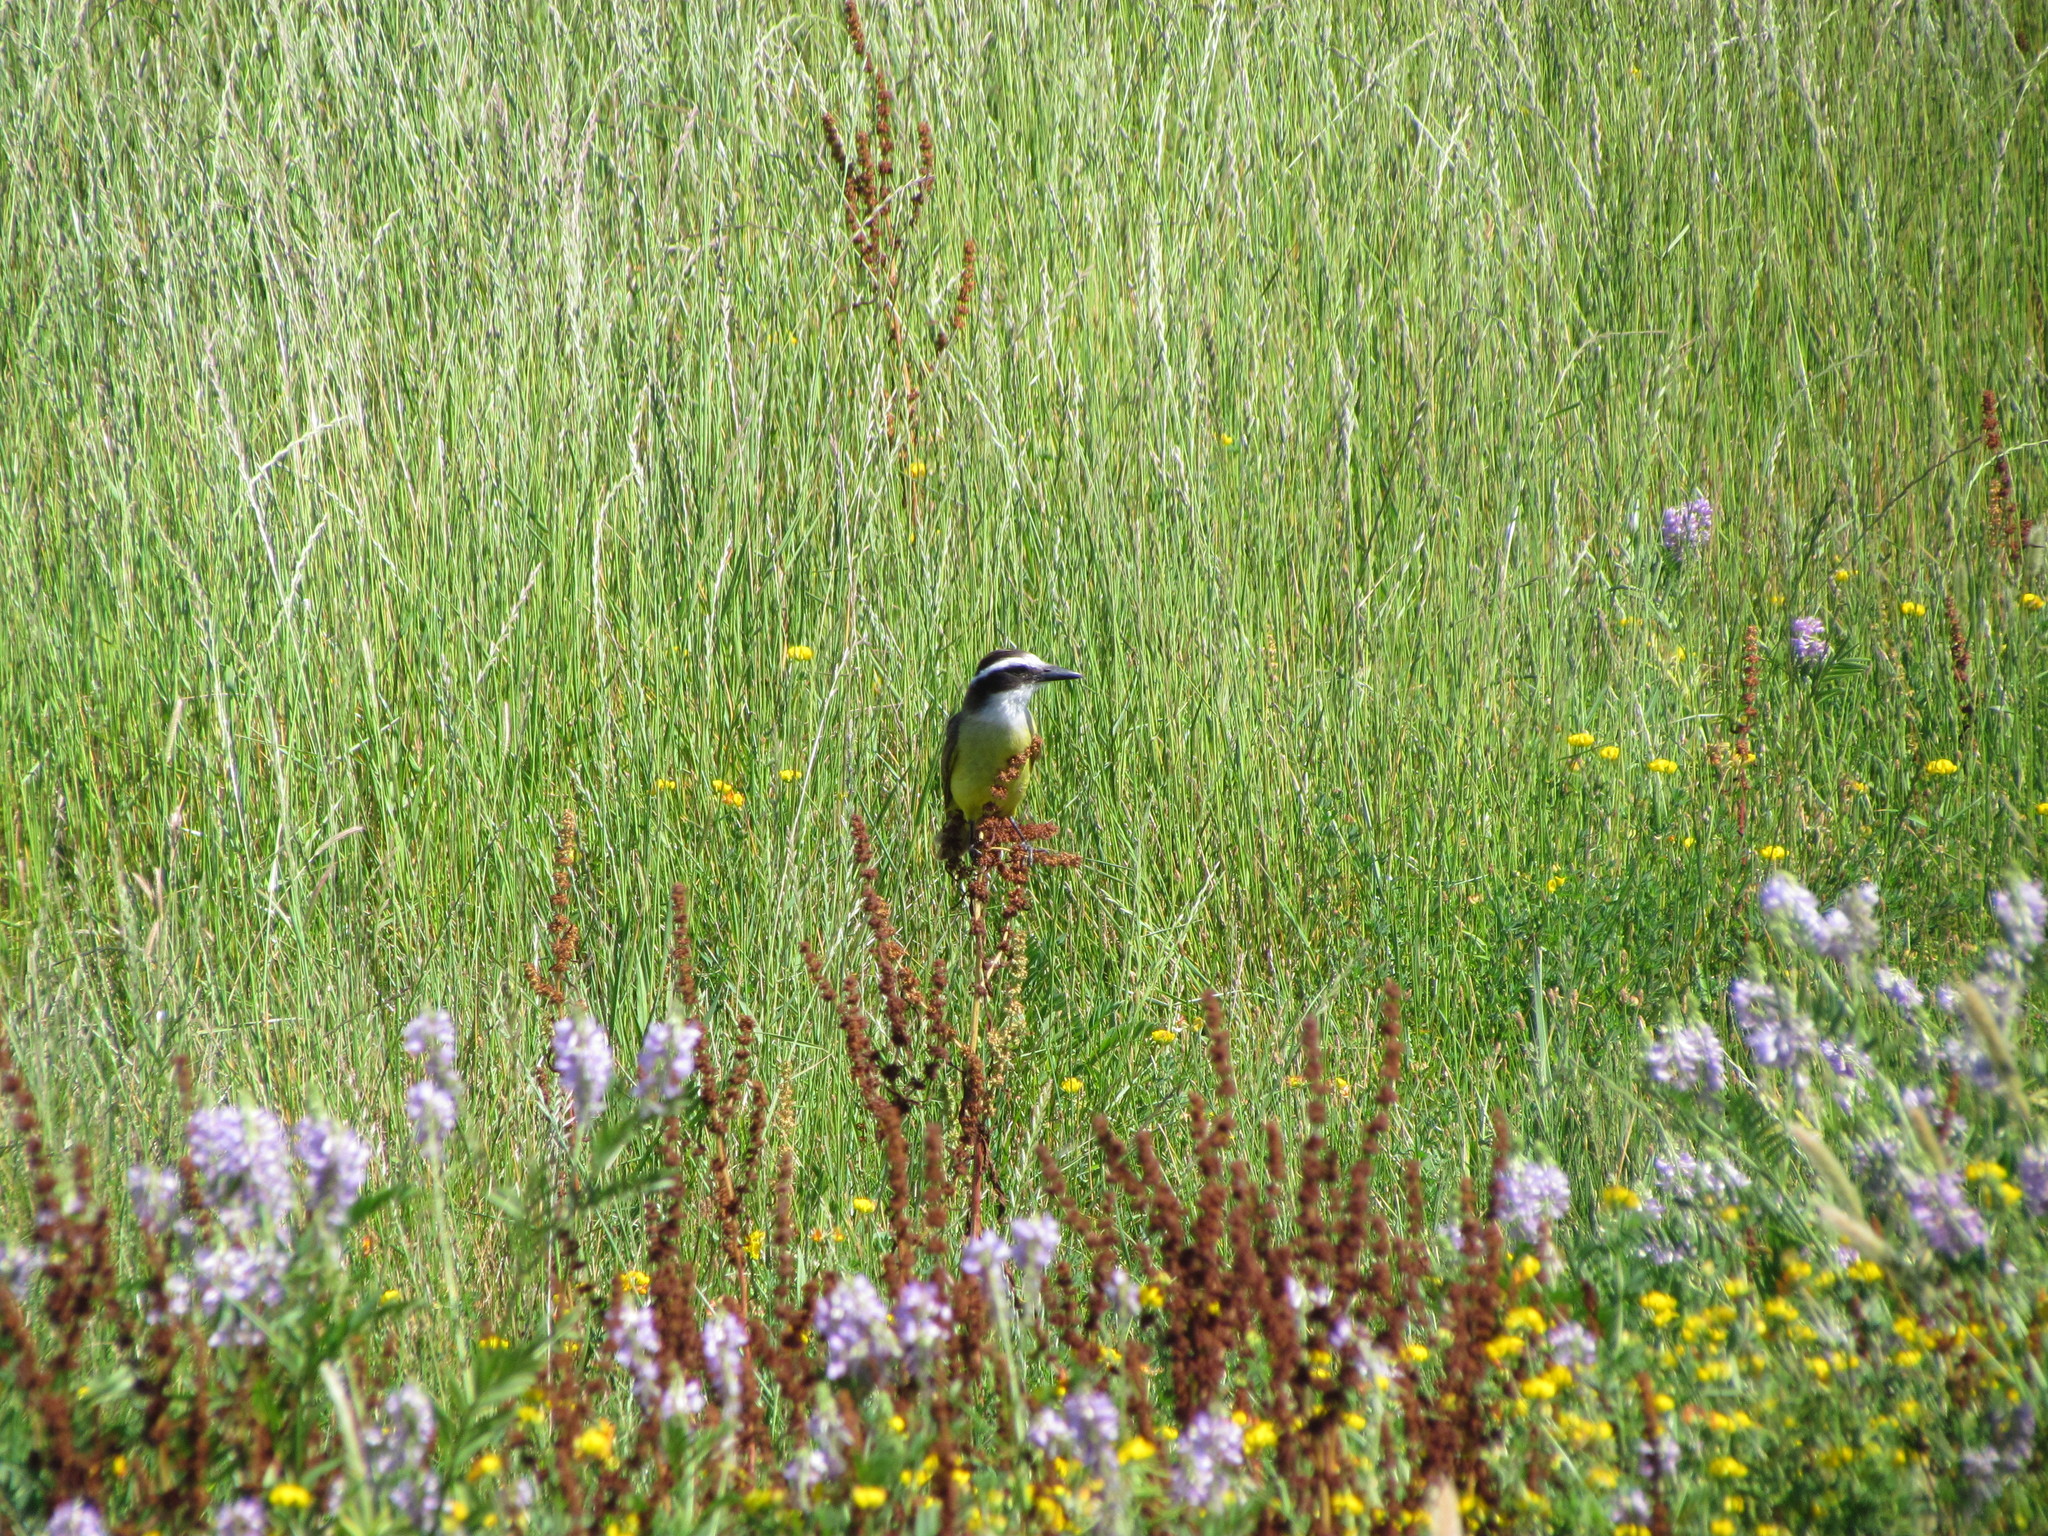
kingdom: Animalia
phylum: Chordata
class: Aves
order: Passeriformes
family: Tyrannidae
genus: Pitangus
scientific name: Pitangus sulphuratus
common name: Great kiskadee
